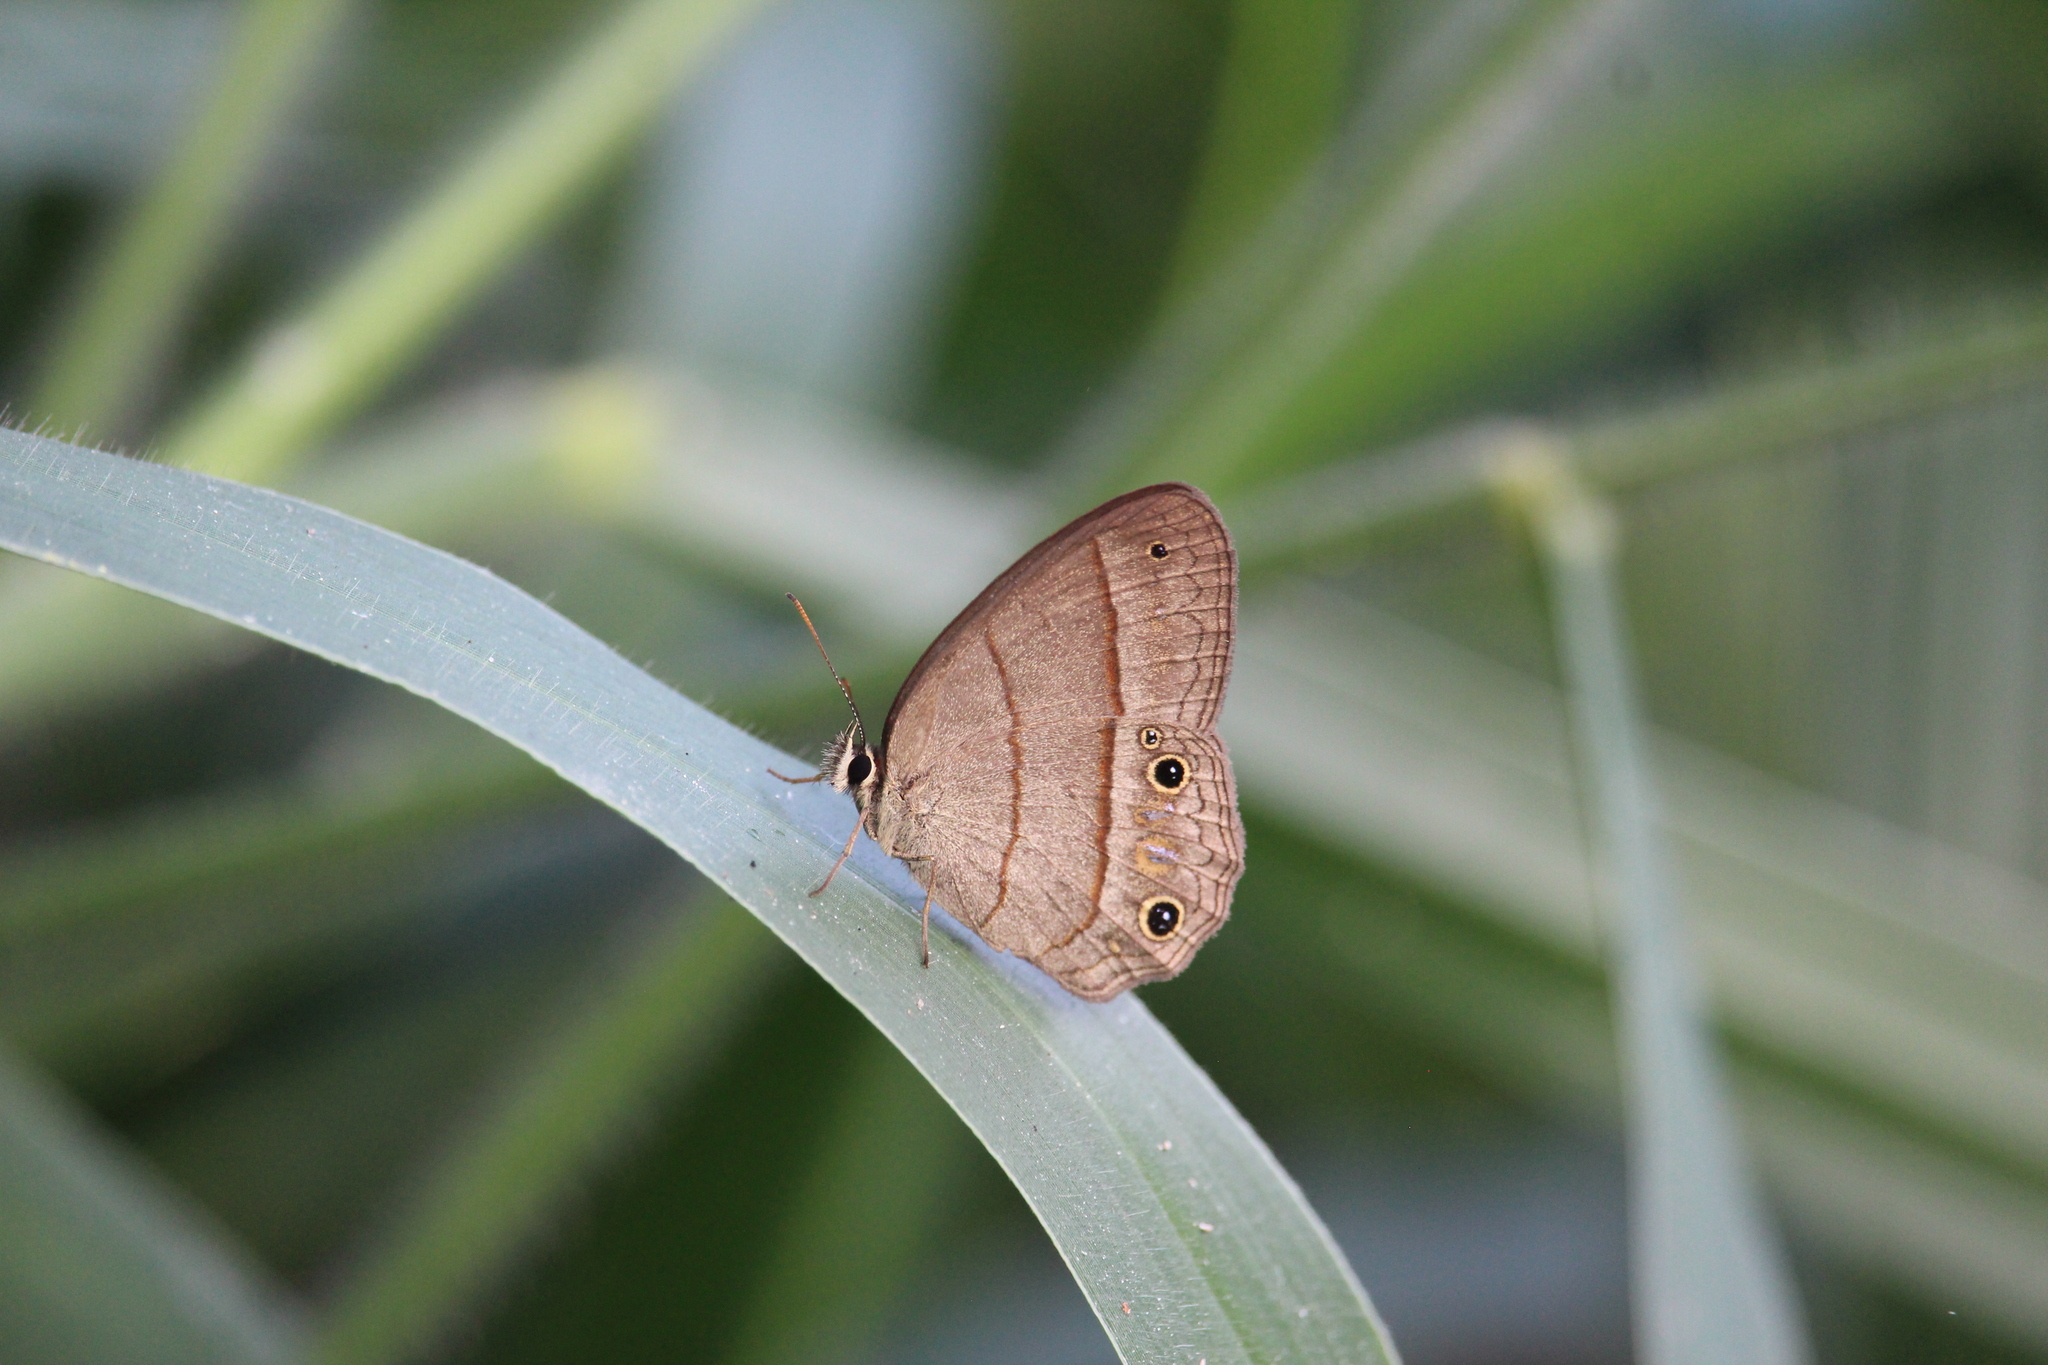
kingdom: Animalia
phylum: Arthropoda
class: Insecta
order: Lepidoptera
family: Nymphalidae
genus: Euptychia
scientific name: Euptychia Cissia pompilia
